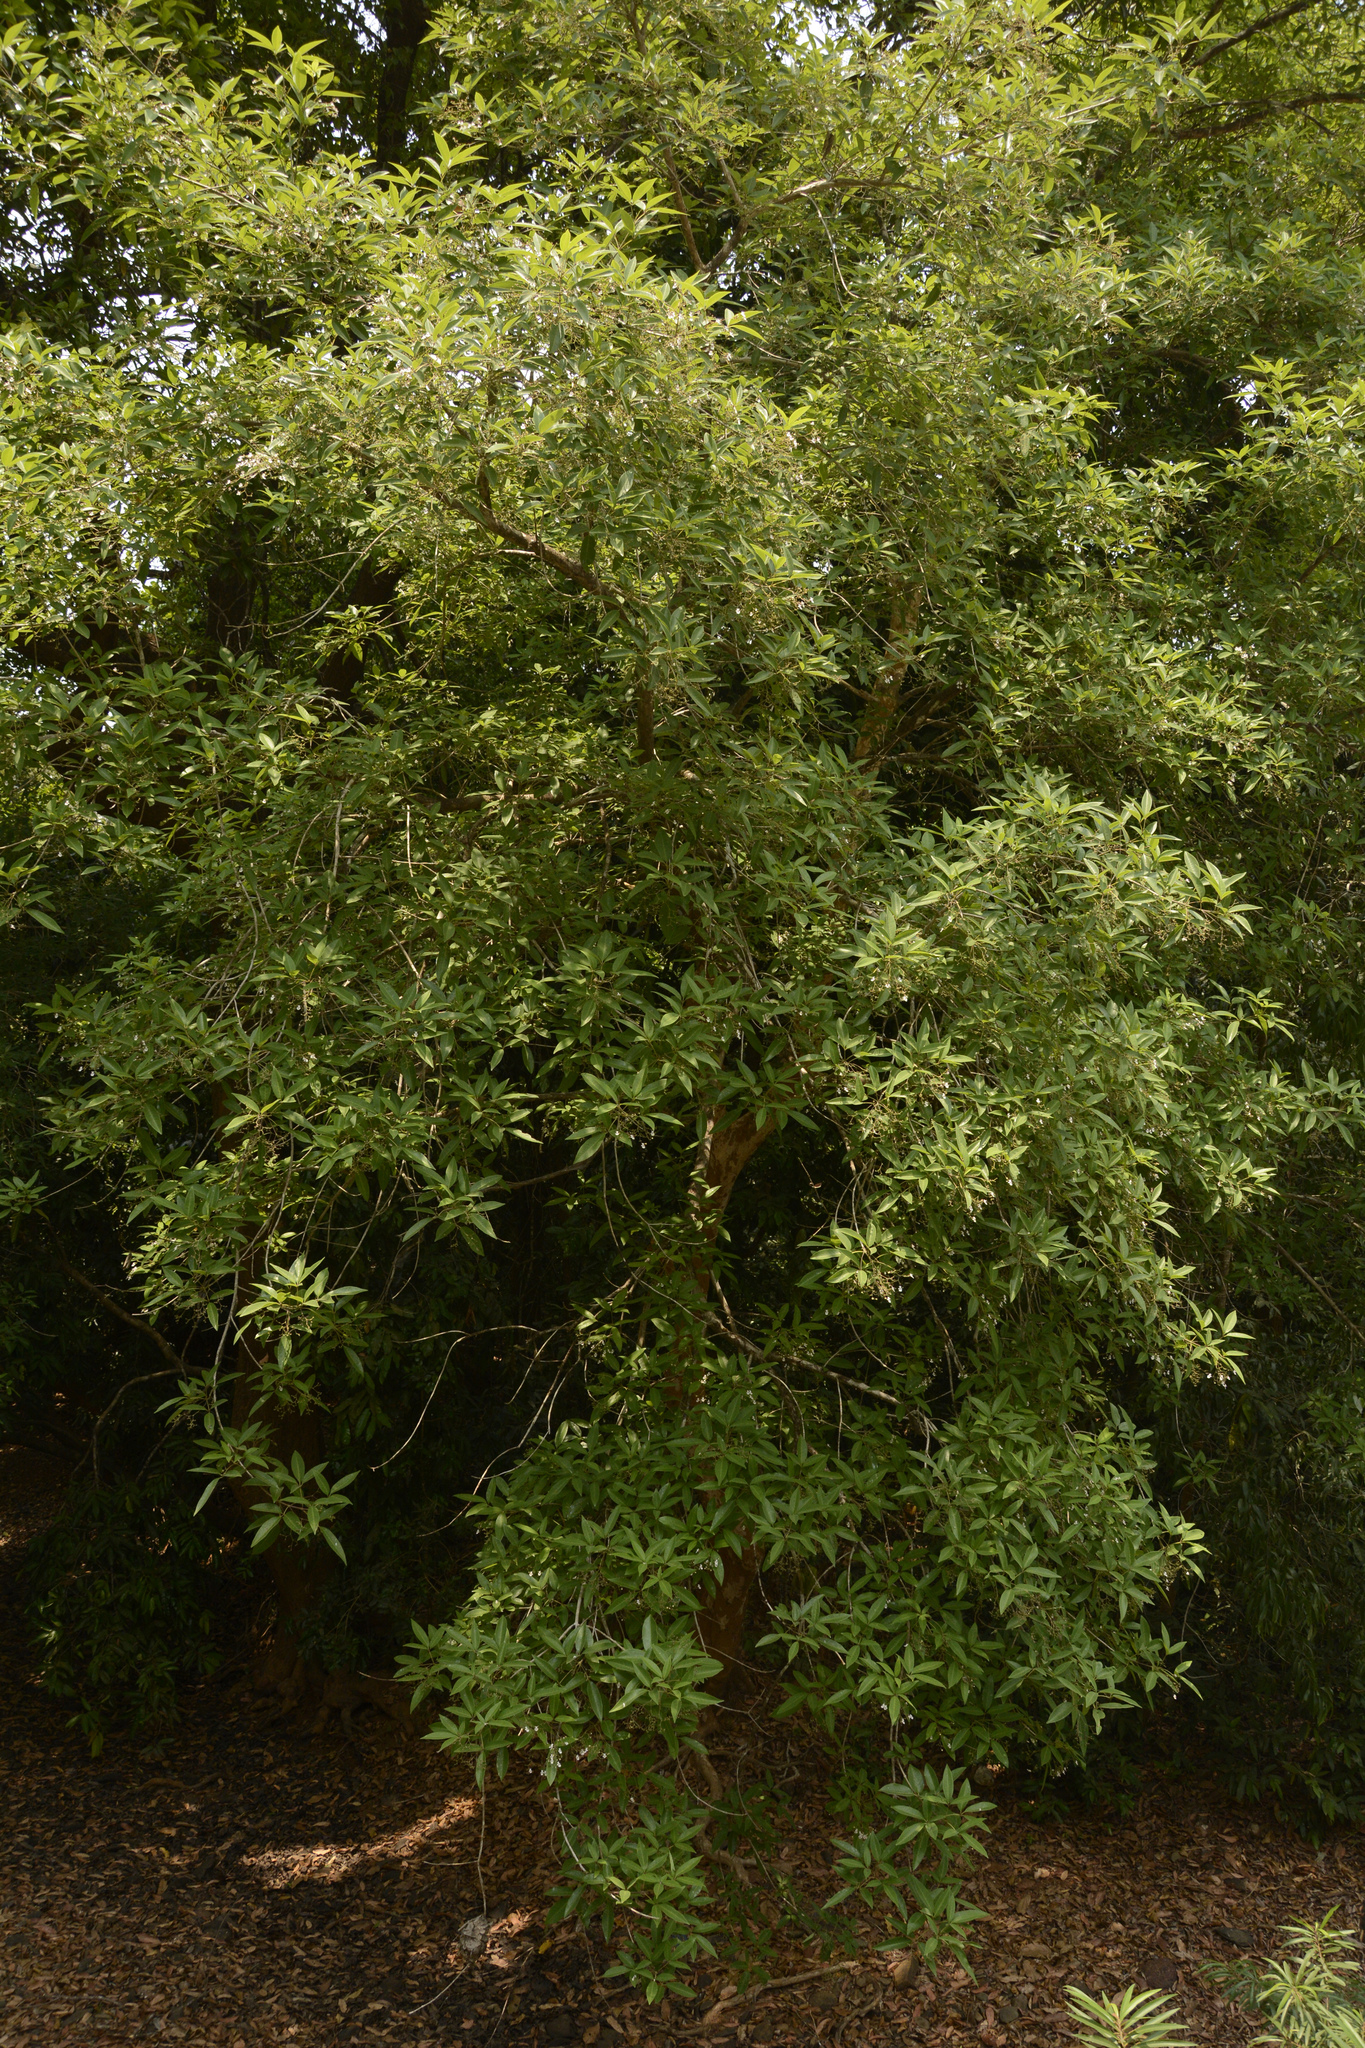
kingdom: Plantae
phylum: Tracheophyta
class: Magnoliopsida
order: Lamiales
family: Lamiaceae
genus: Vitex
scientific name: Vitex leucoxylon
